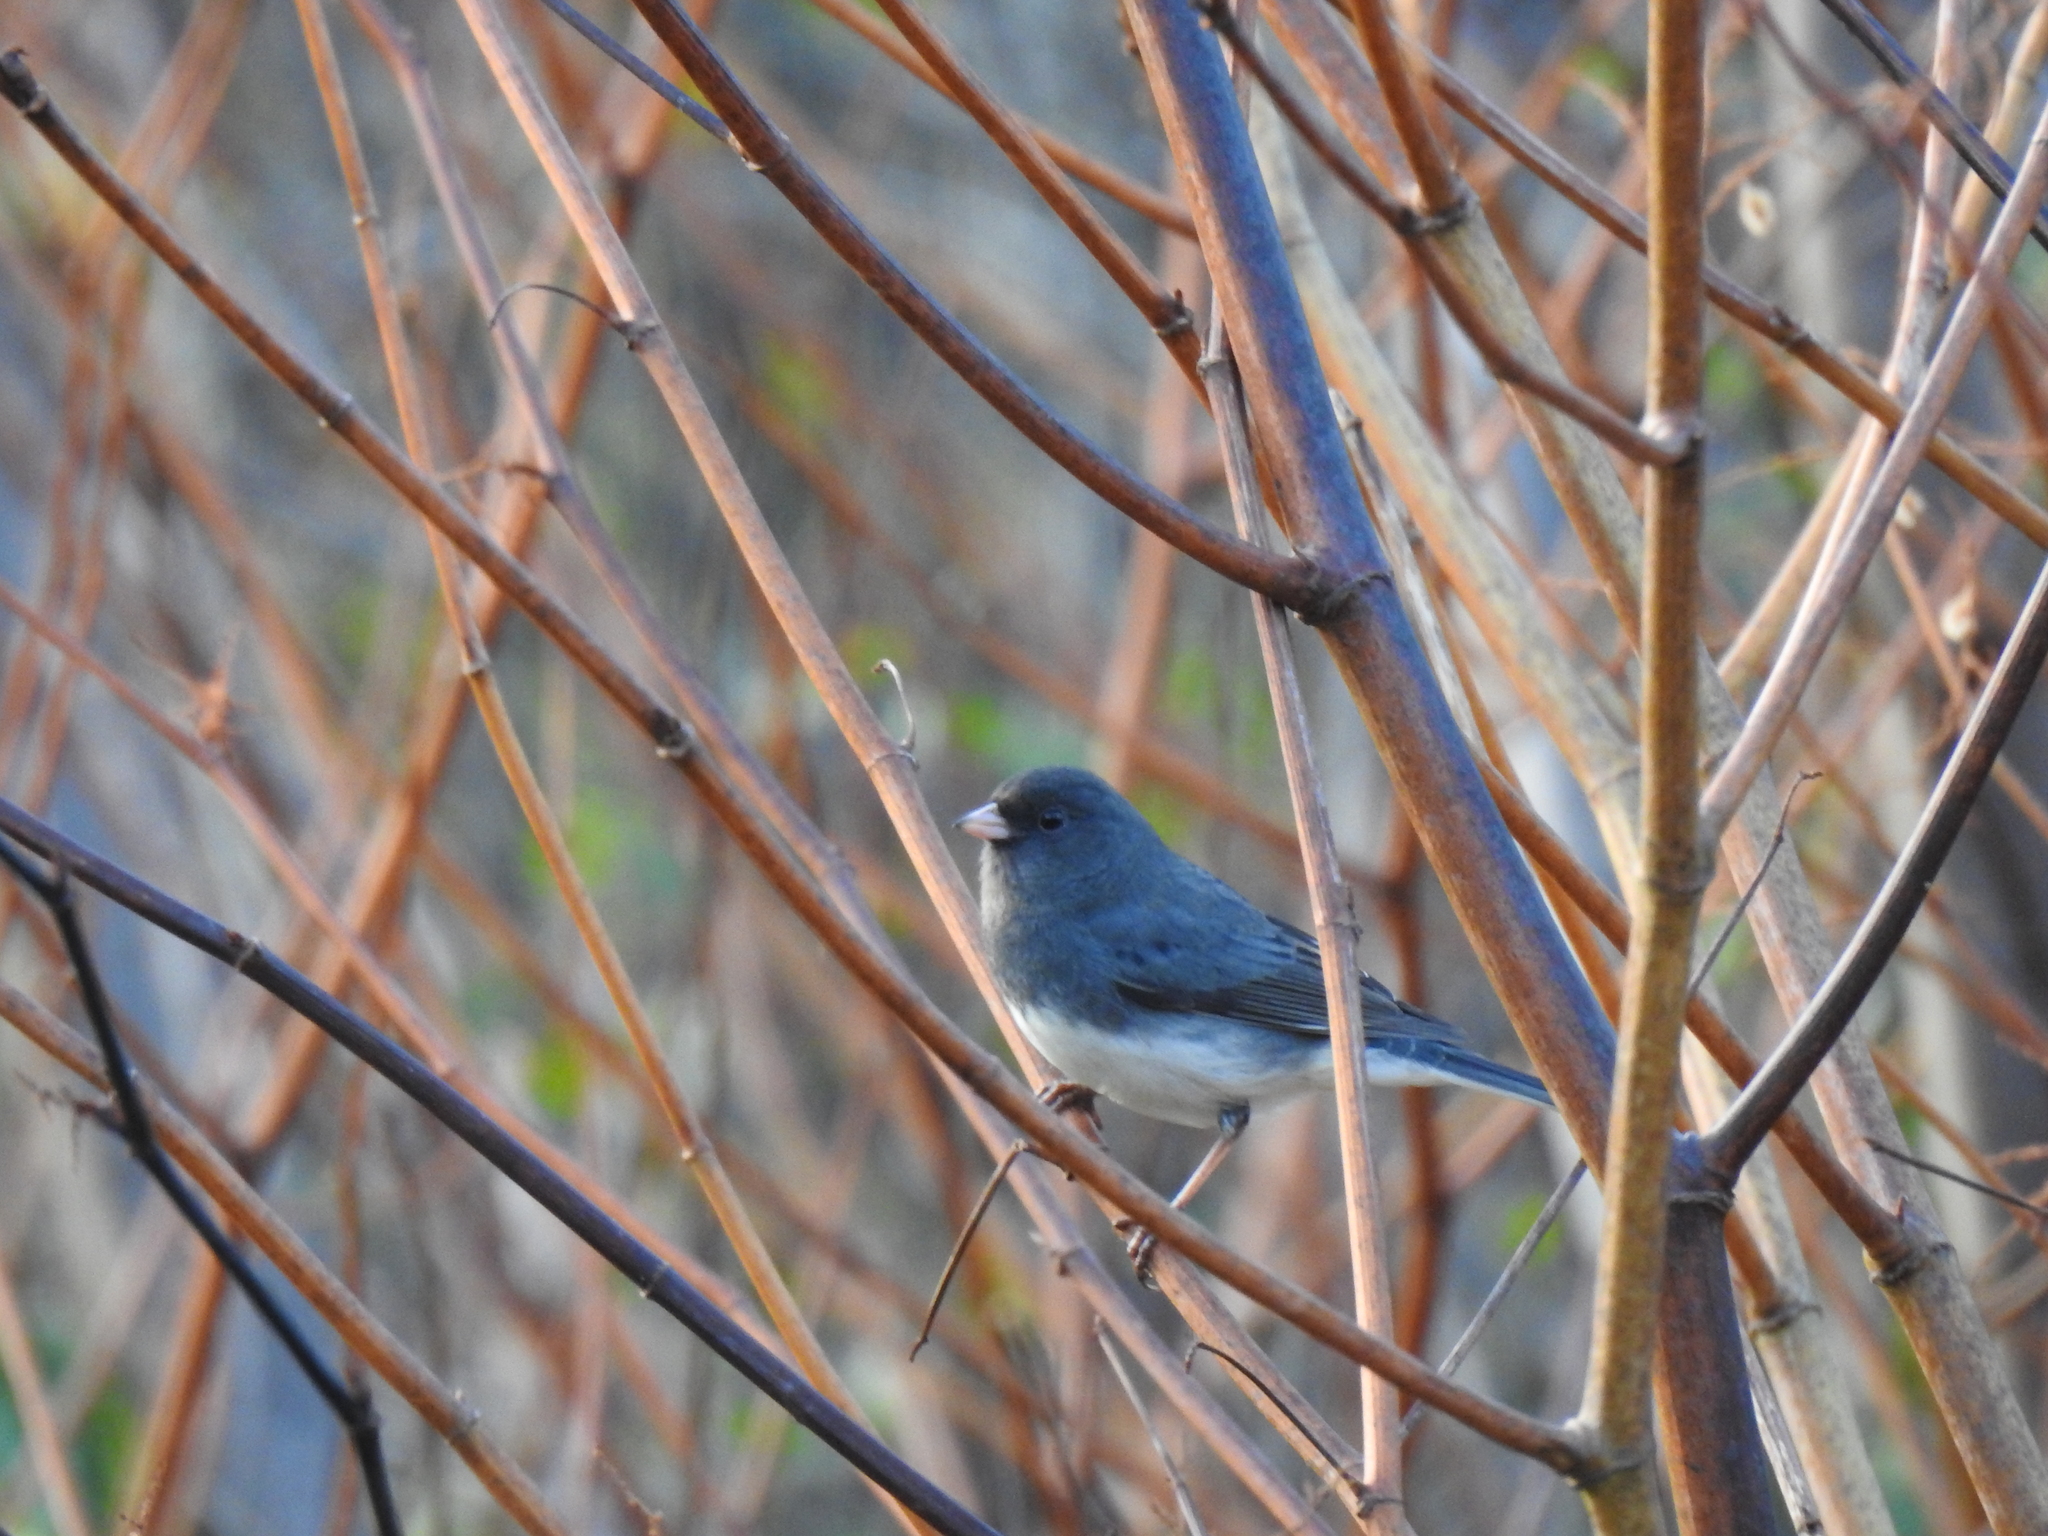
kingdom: Animalia
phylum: Chordata
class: Aves
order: Passeriformes
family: Passerellidae
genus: Junco
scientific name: Junco hyemalis
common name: Dark-eyed junco
